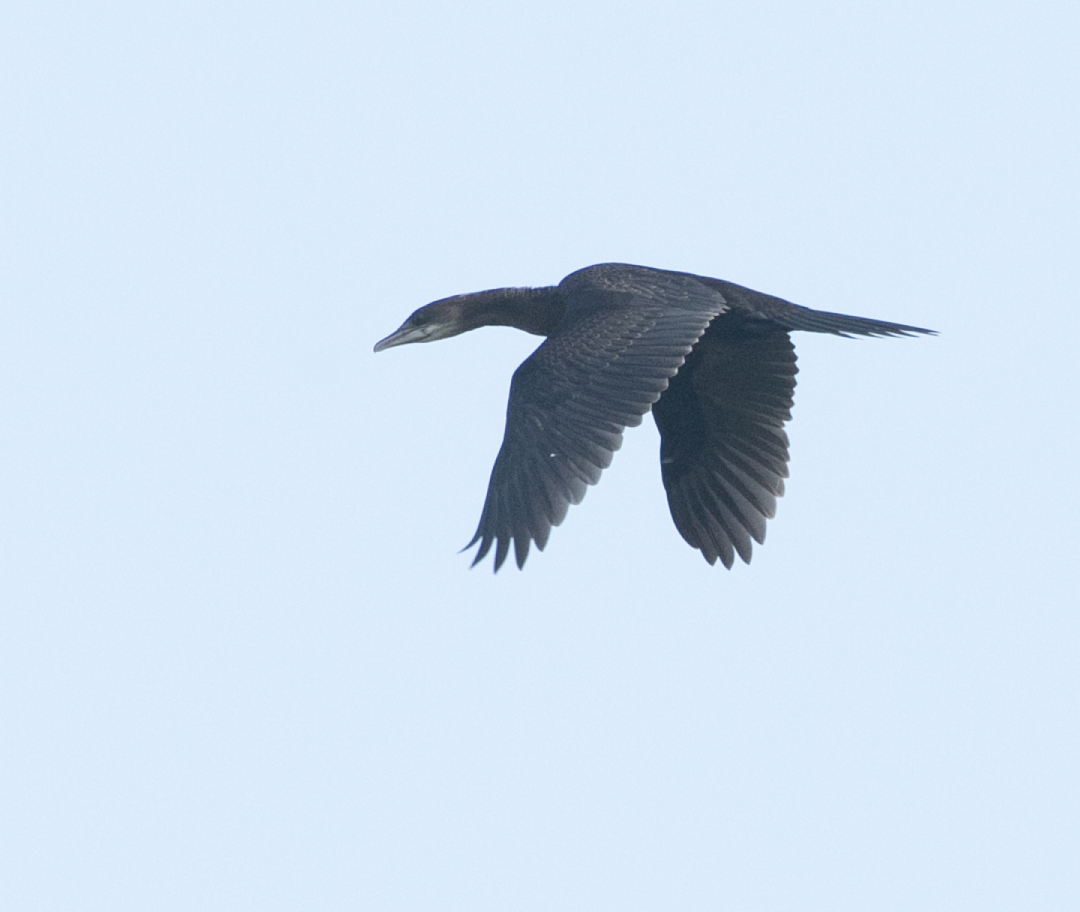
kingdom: Animalia
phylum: Chordata
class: Aves
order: Suliformes
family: Phalacrocoracidae
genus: Microcarbo
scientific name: Microcarbo pygmaeus
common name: Pygmy cormorant
